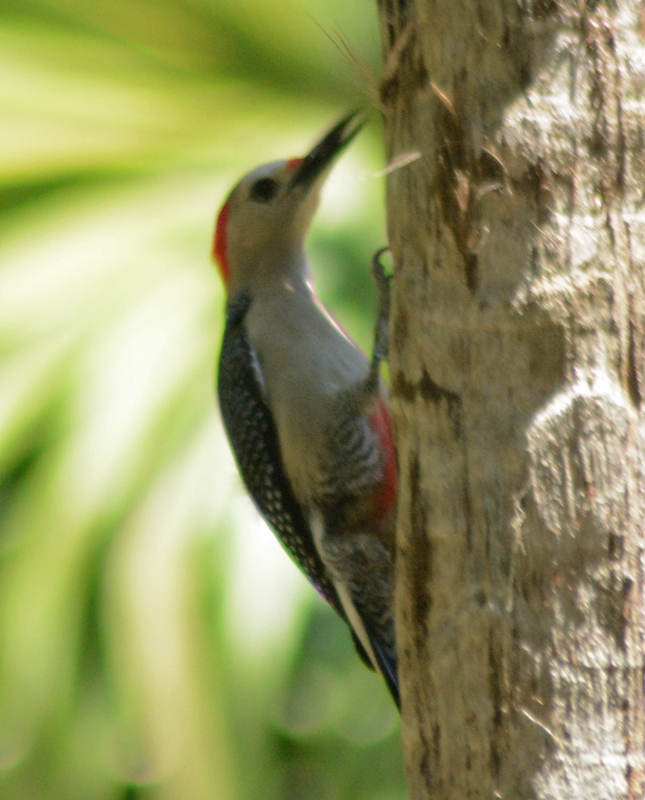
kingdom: Animalia
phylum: Chordata
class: Aves
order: Piciformes
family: Picidae
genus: Melanerpes
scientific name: Melanerpes santacruzi
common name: Velasquez's woodpecker
